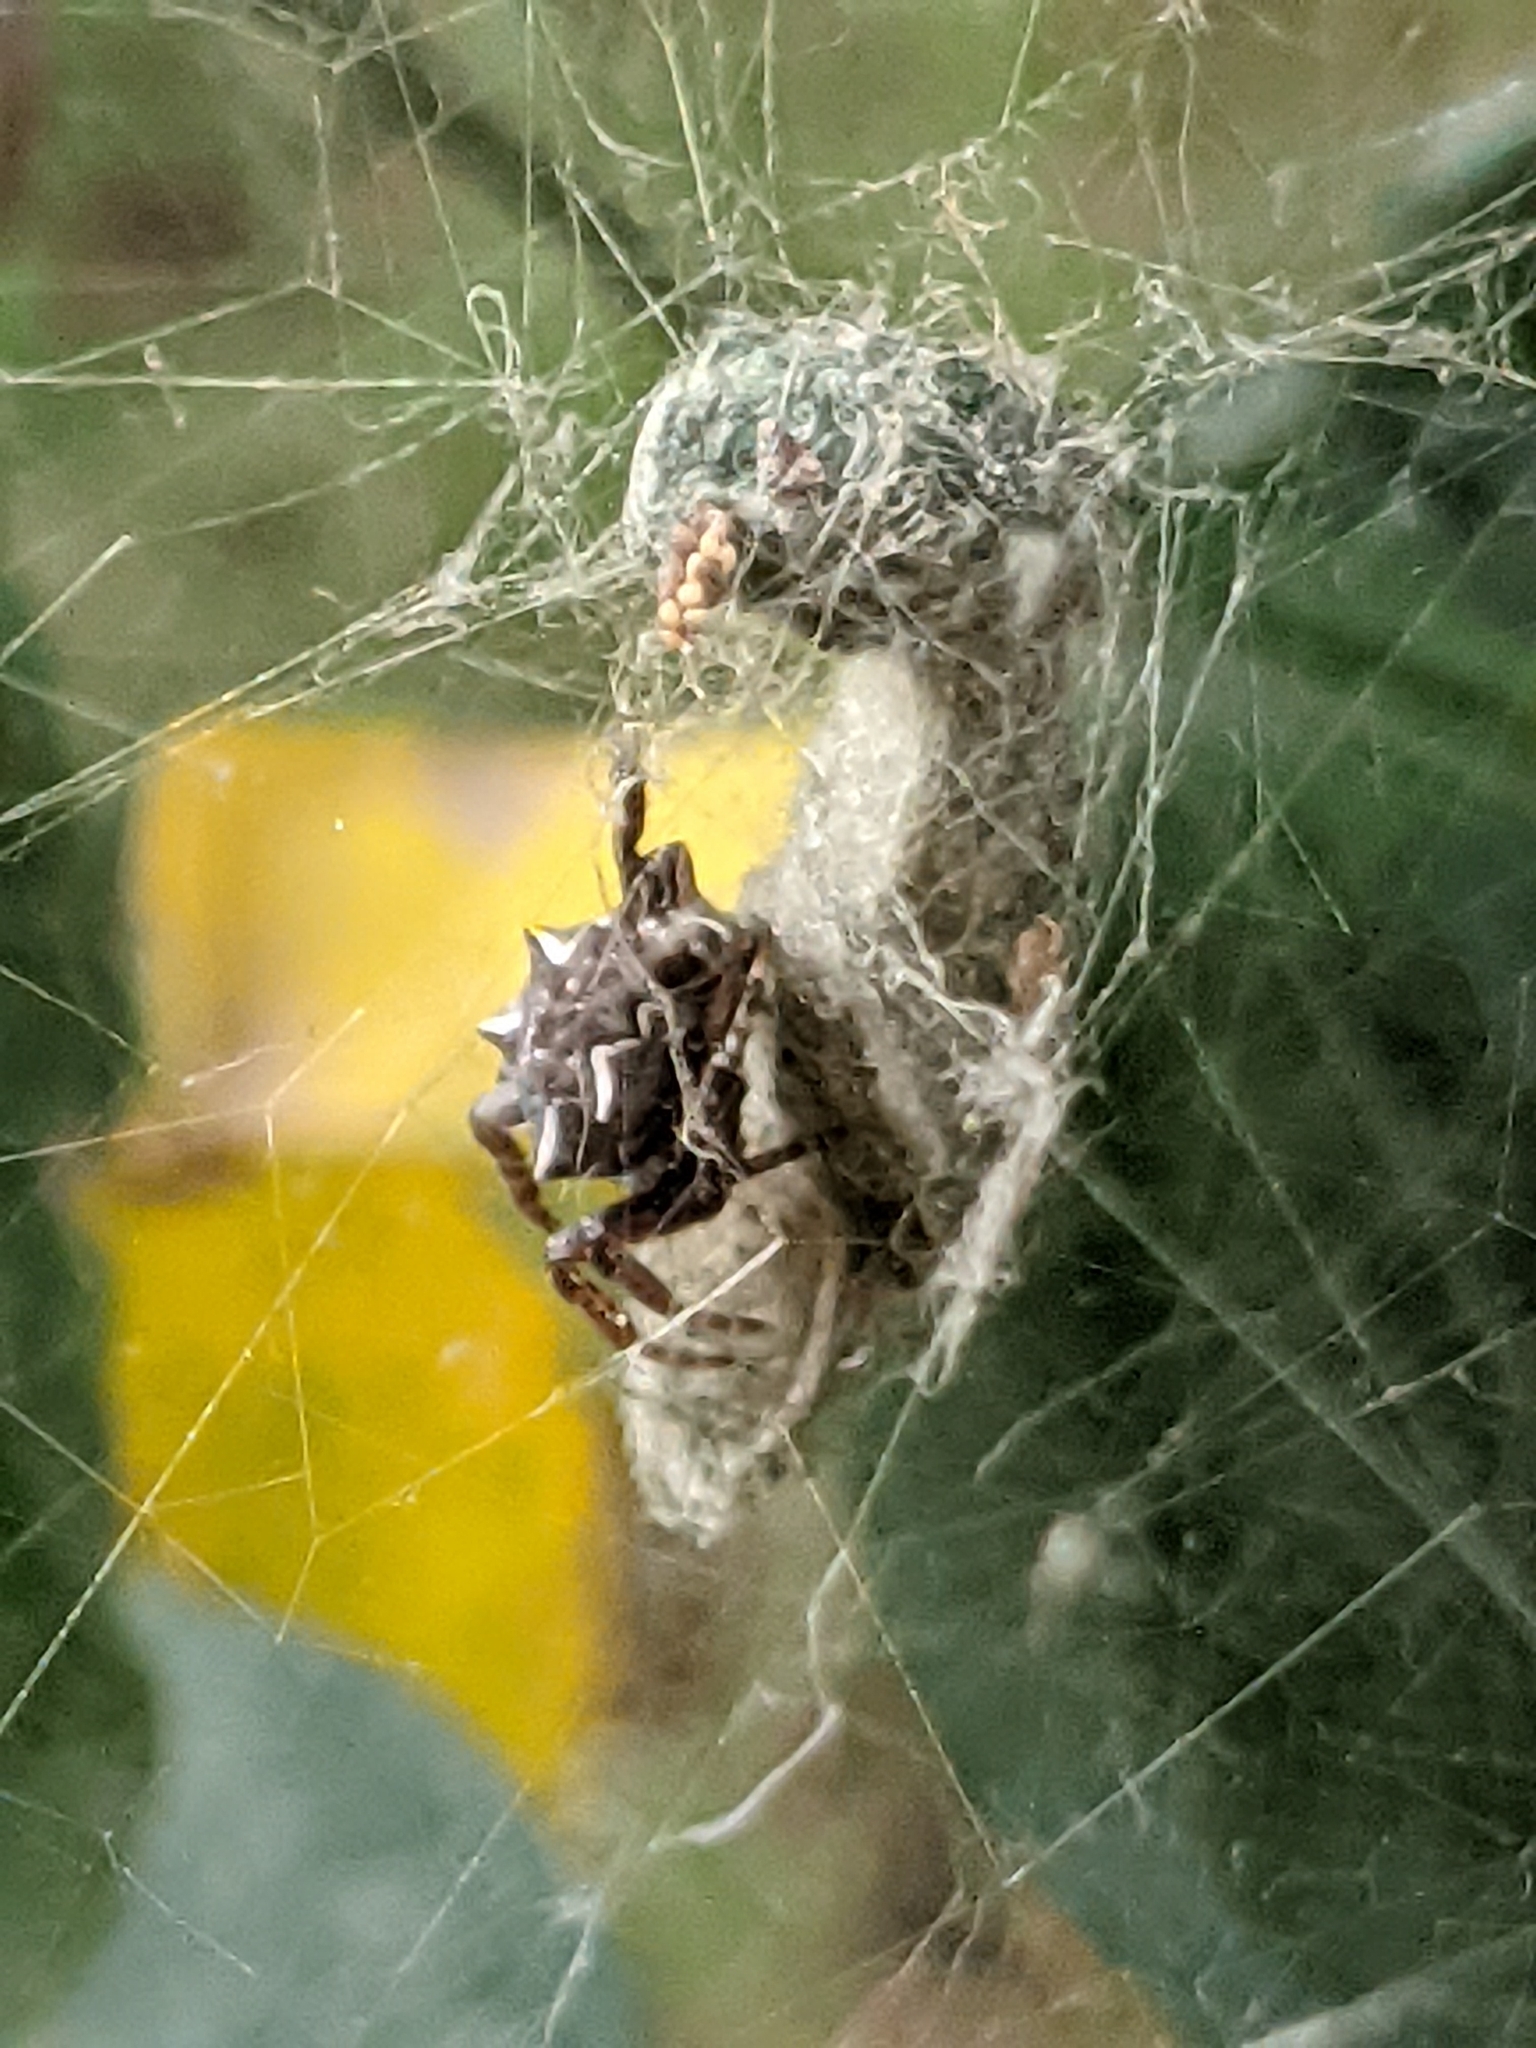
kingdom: Animalia
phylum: Arthropoda
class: Arachnida
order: Araneae
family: Araneidae
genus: Cyrtophora
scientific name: Cyrtophora citricola
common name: Orb weavers
